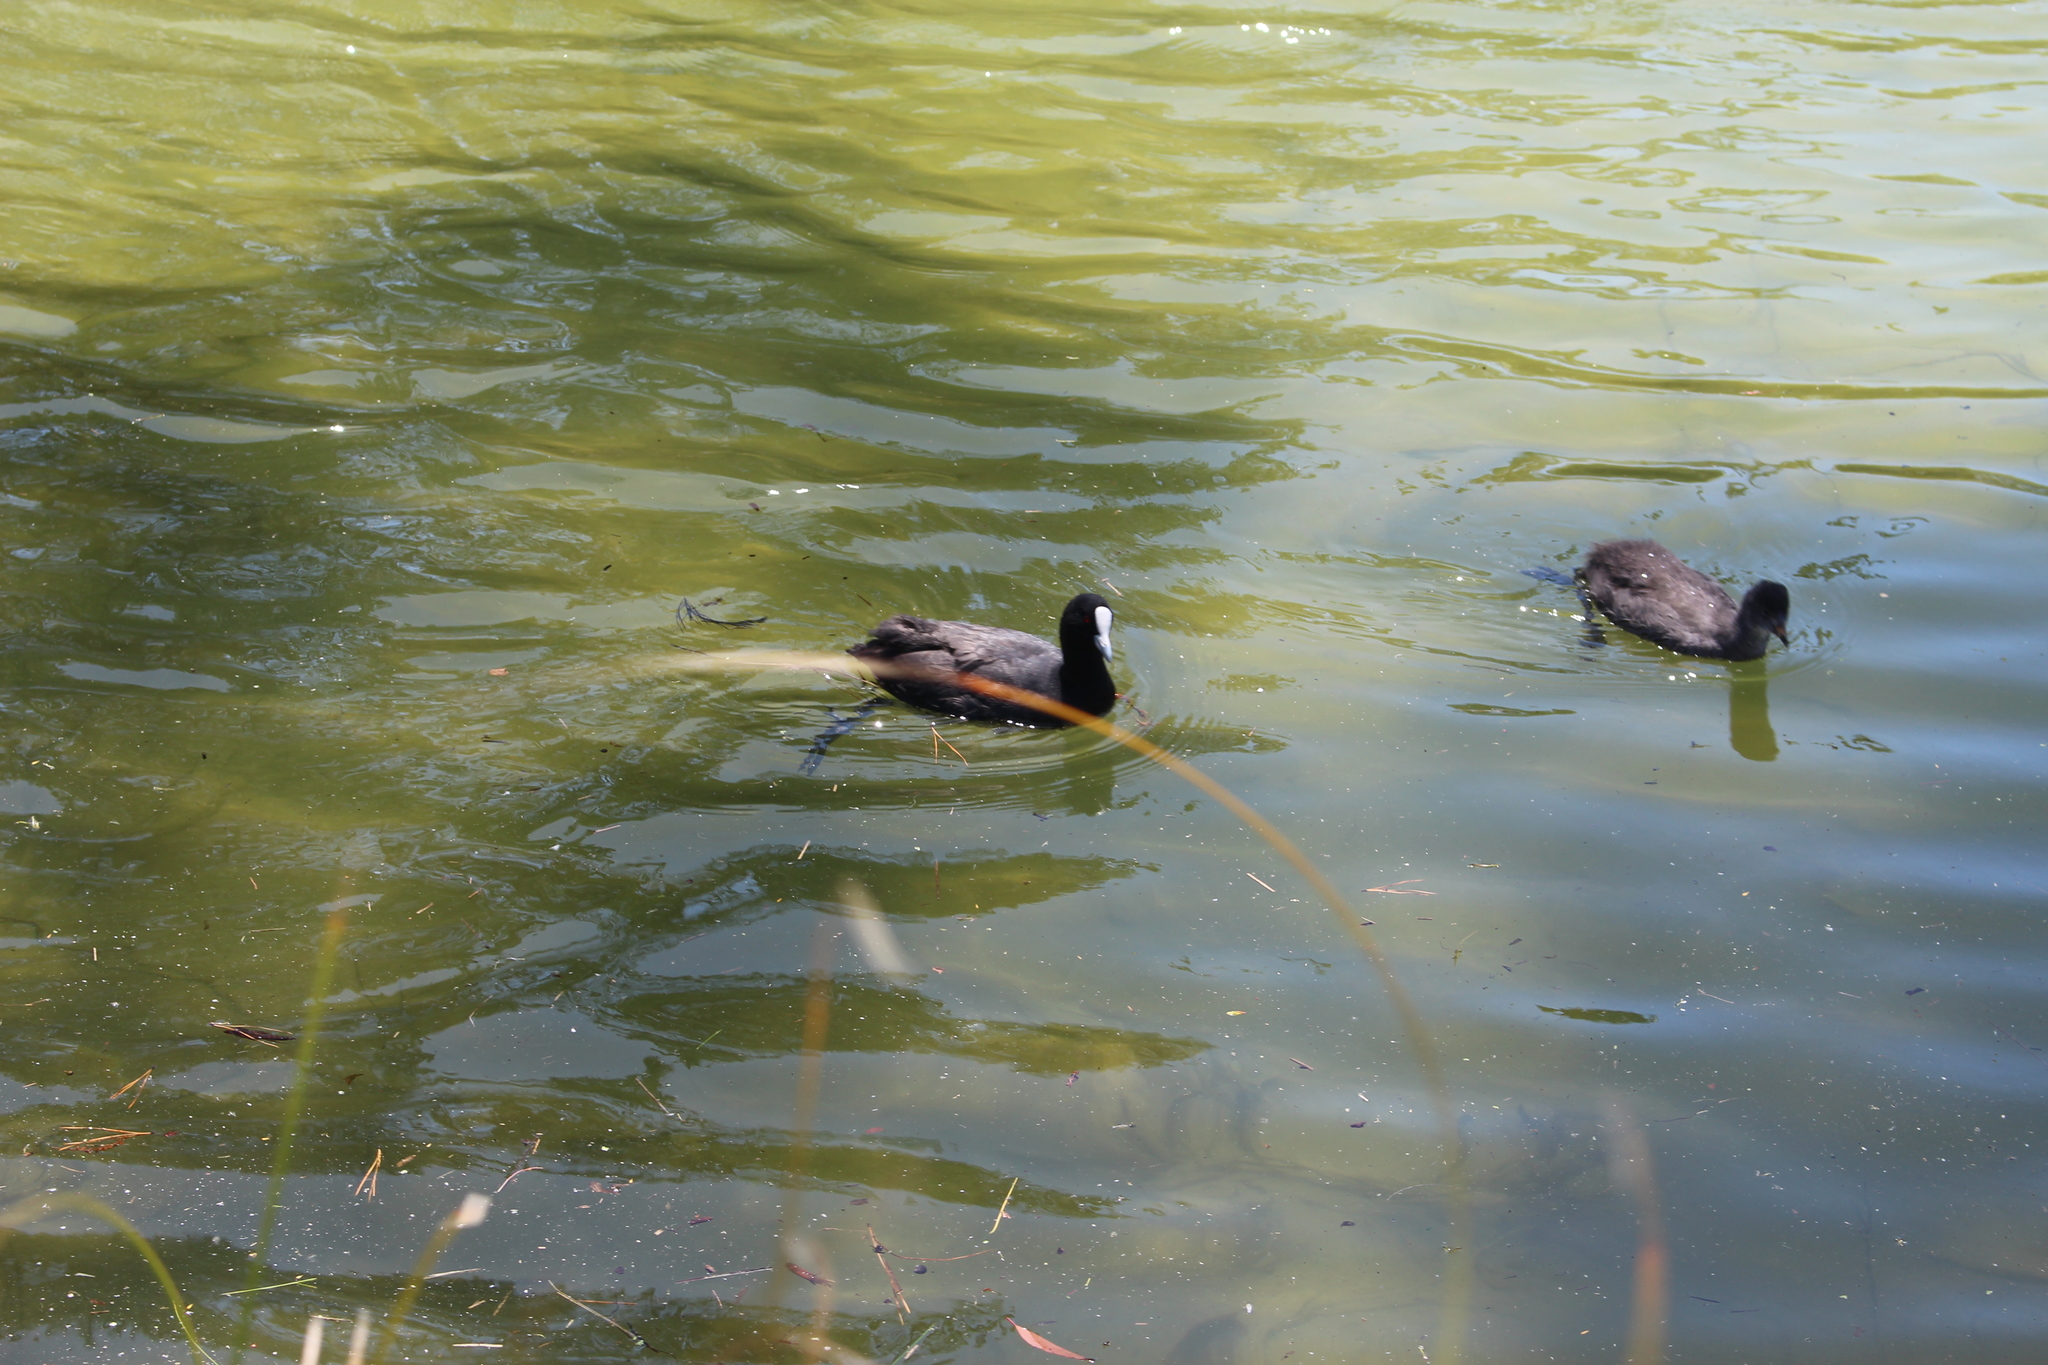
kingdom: Animalia
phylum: Chordata
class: Aves
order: Gruiformes
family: Rallidae
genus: Fulica
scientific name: Fulica atra
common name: Eurasian coot
